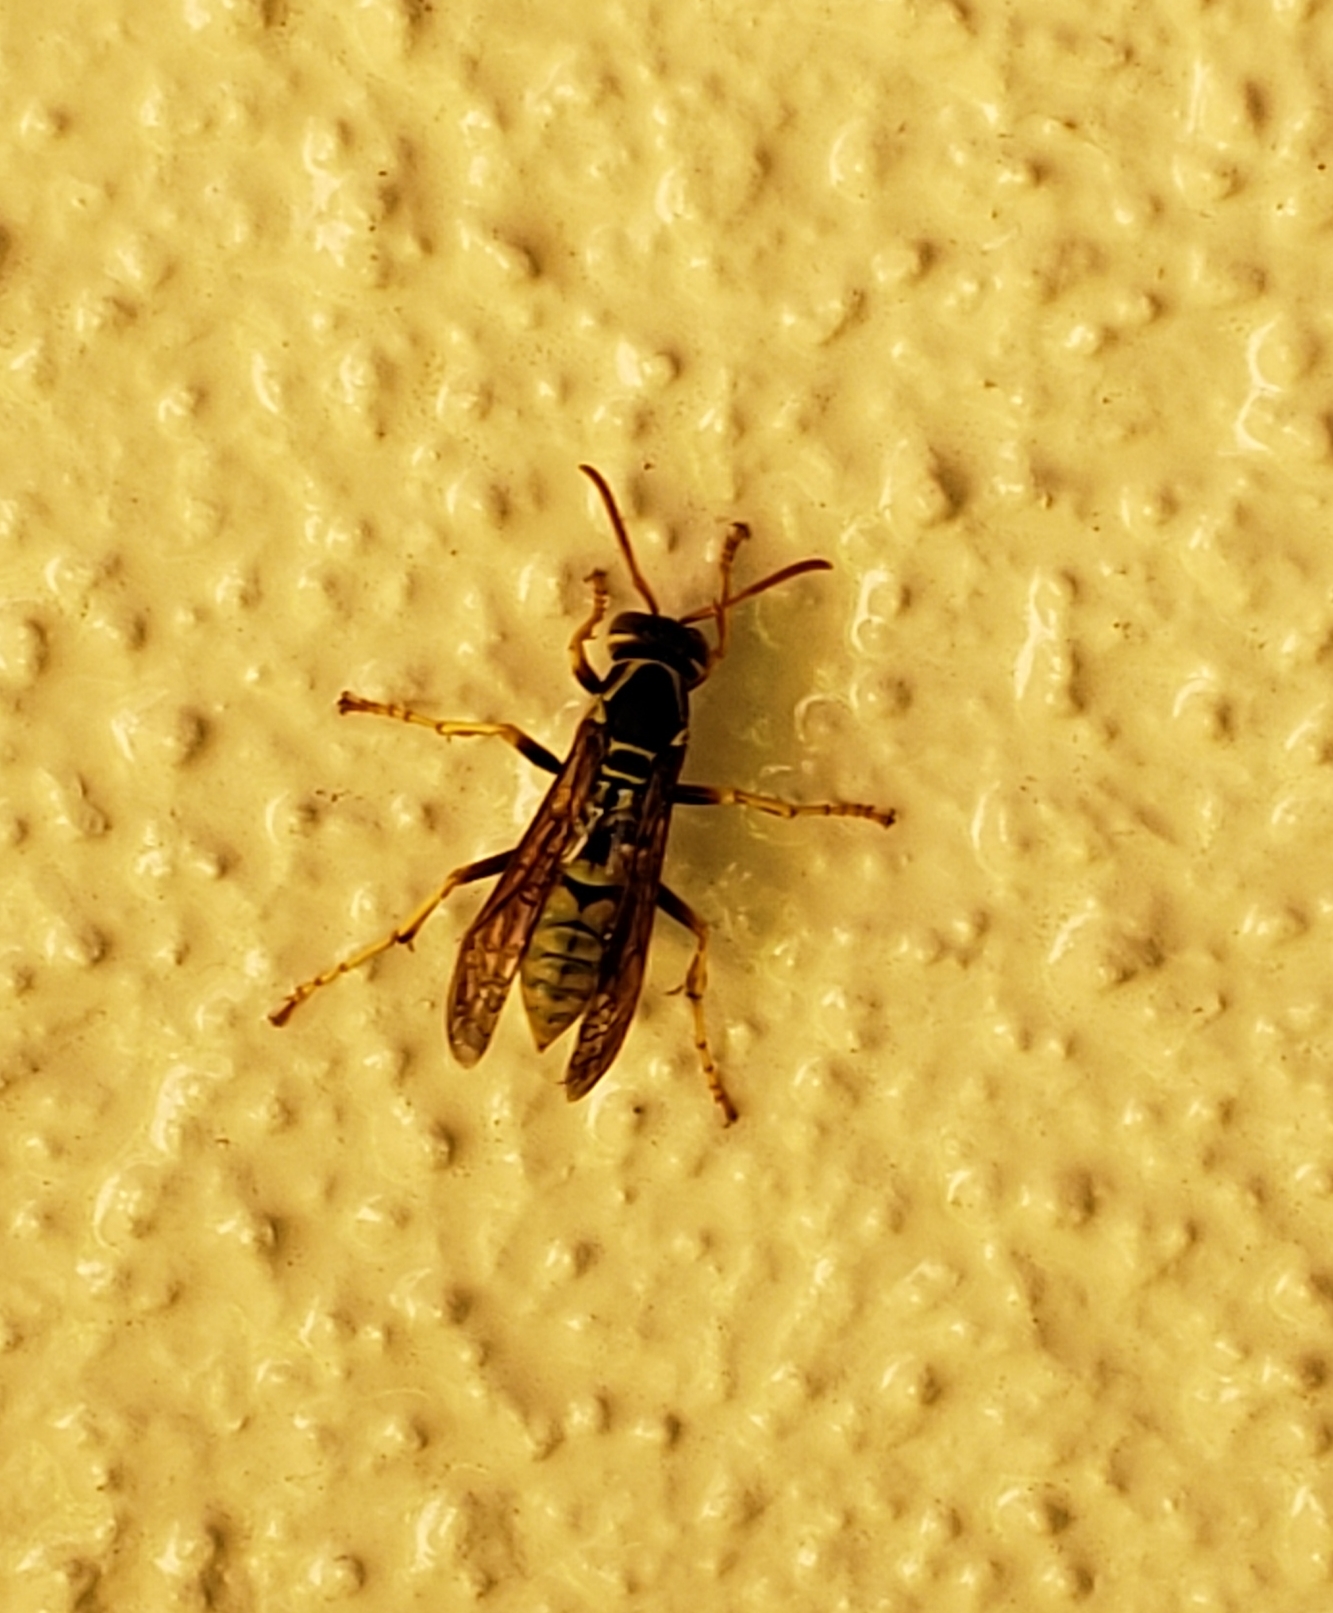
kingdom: Animalia
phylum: Arthropoda
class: Insecta
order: Hymenoptera
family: Eumenidae
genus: Polistes
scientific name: Polistes aurifer
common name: Paper wasp
